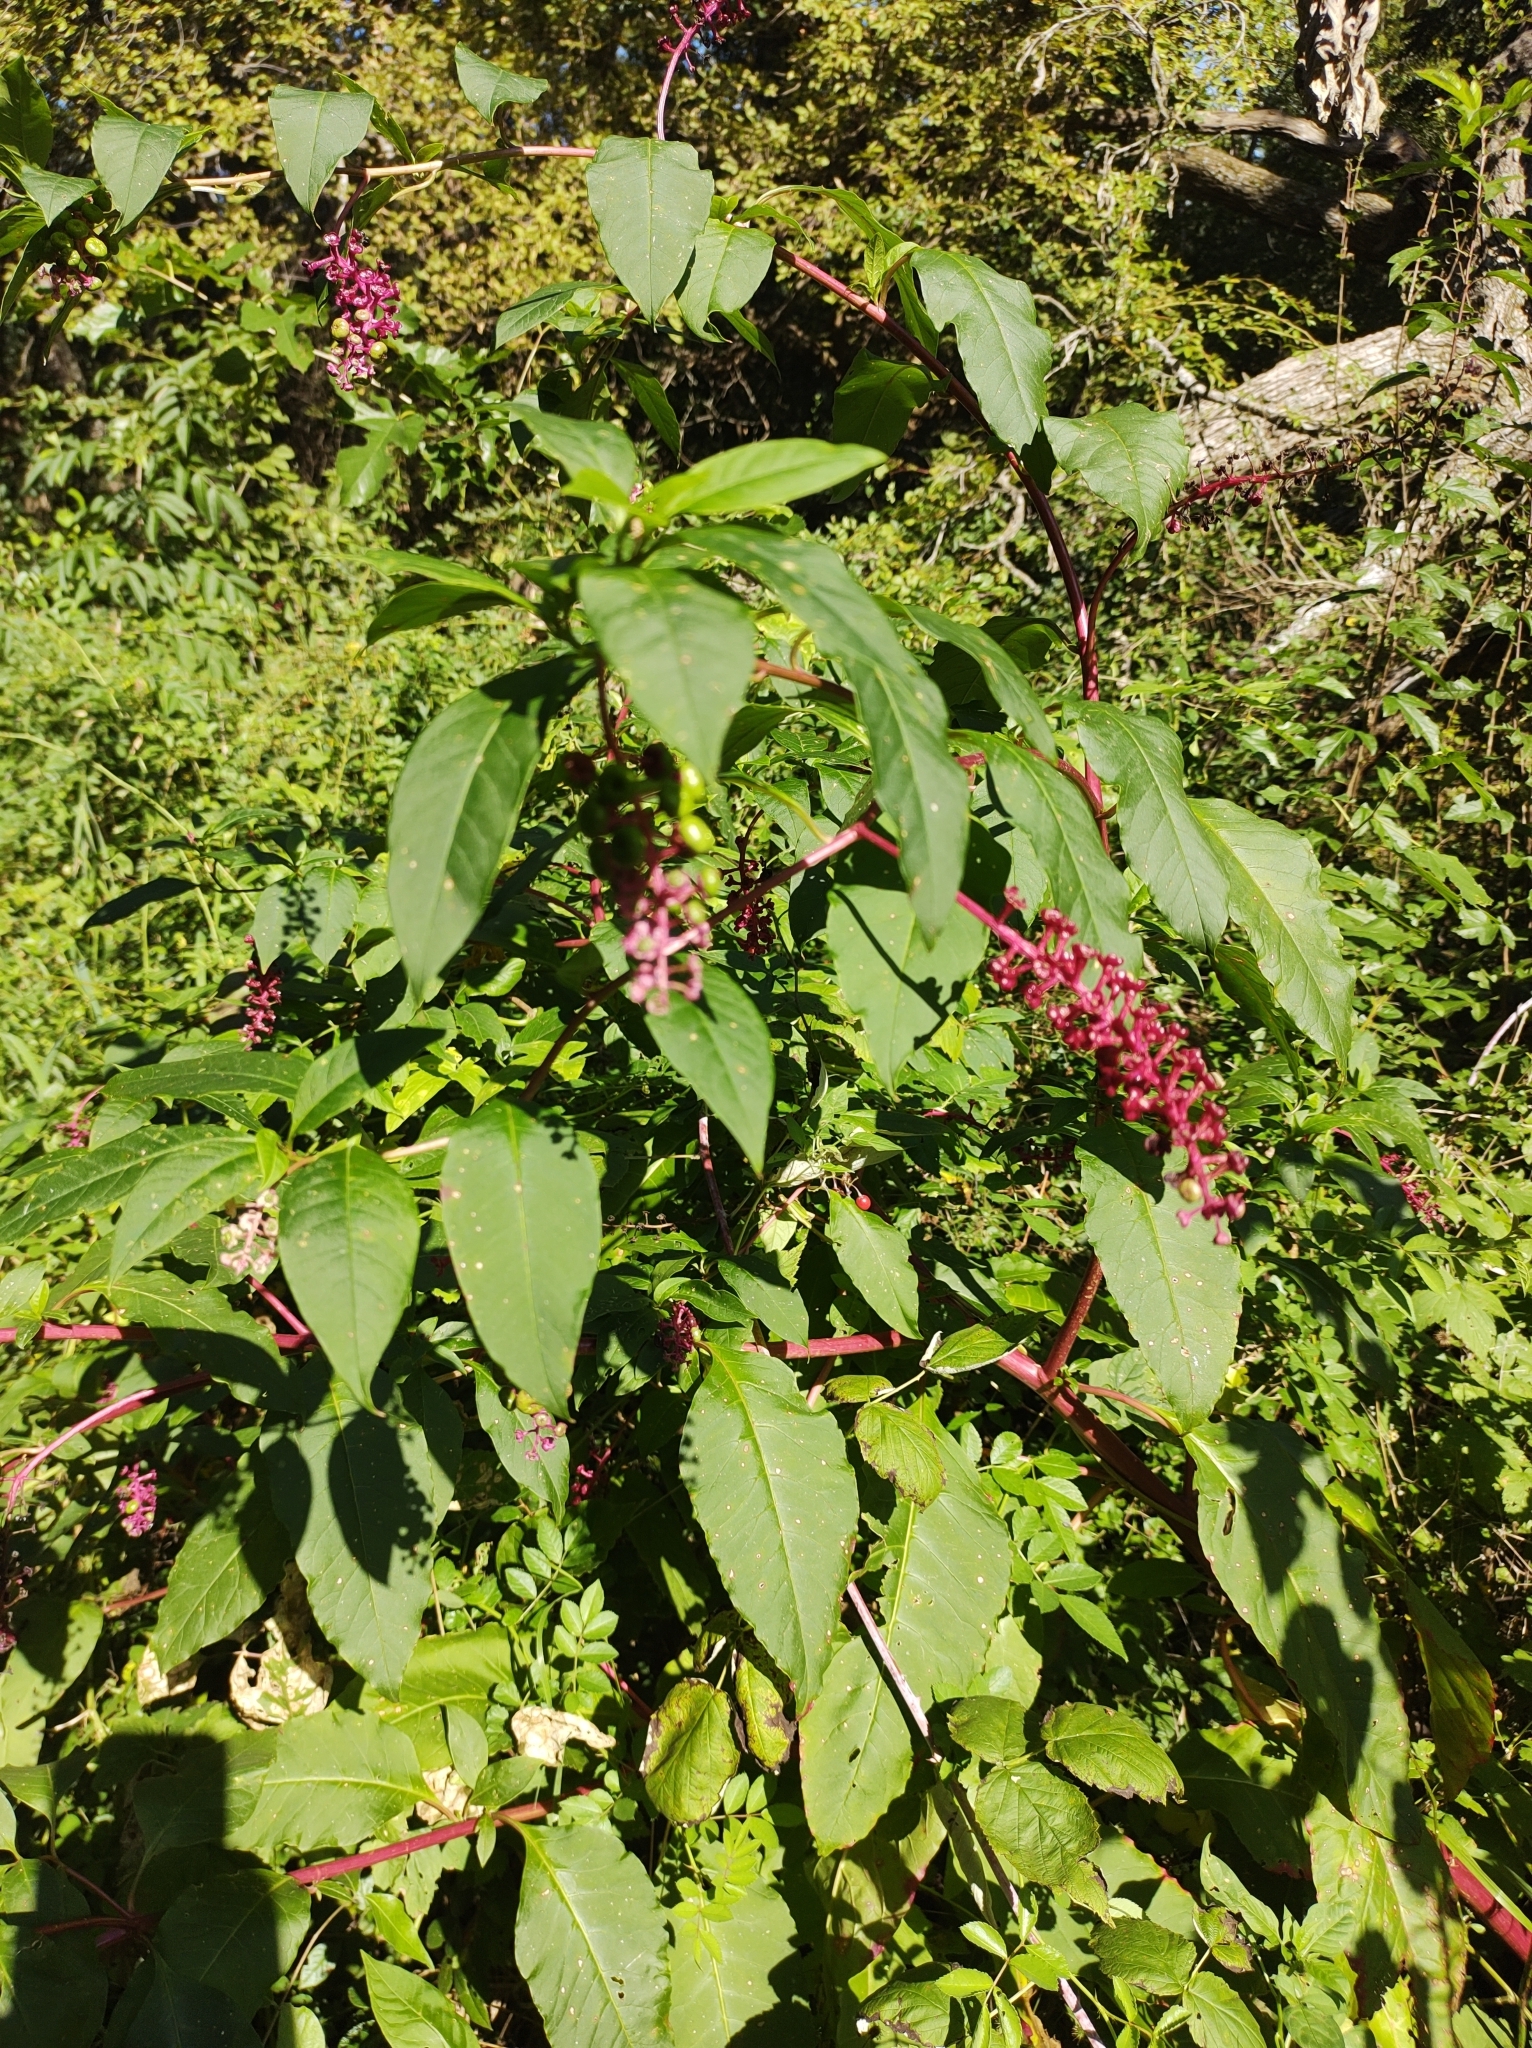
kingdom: Plantae
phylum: Tracheophyta
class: Magnoliopsida
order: Caryophyllales
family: Phytolaccaceae
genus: Phytolacca
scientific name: Phytolacca americana
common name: American pokeweed
